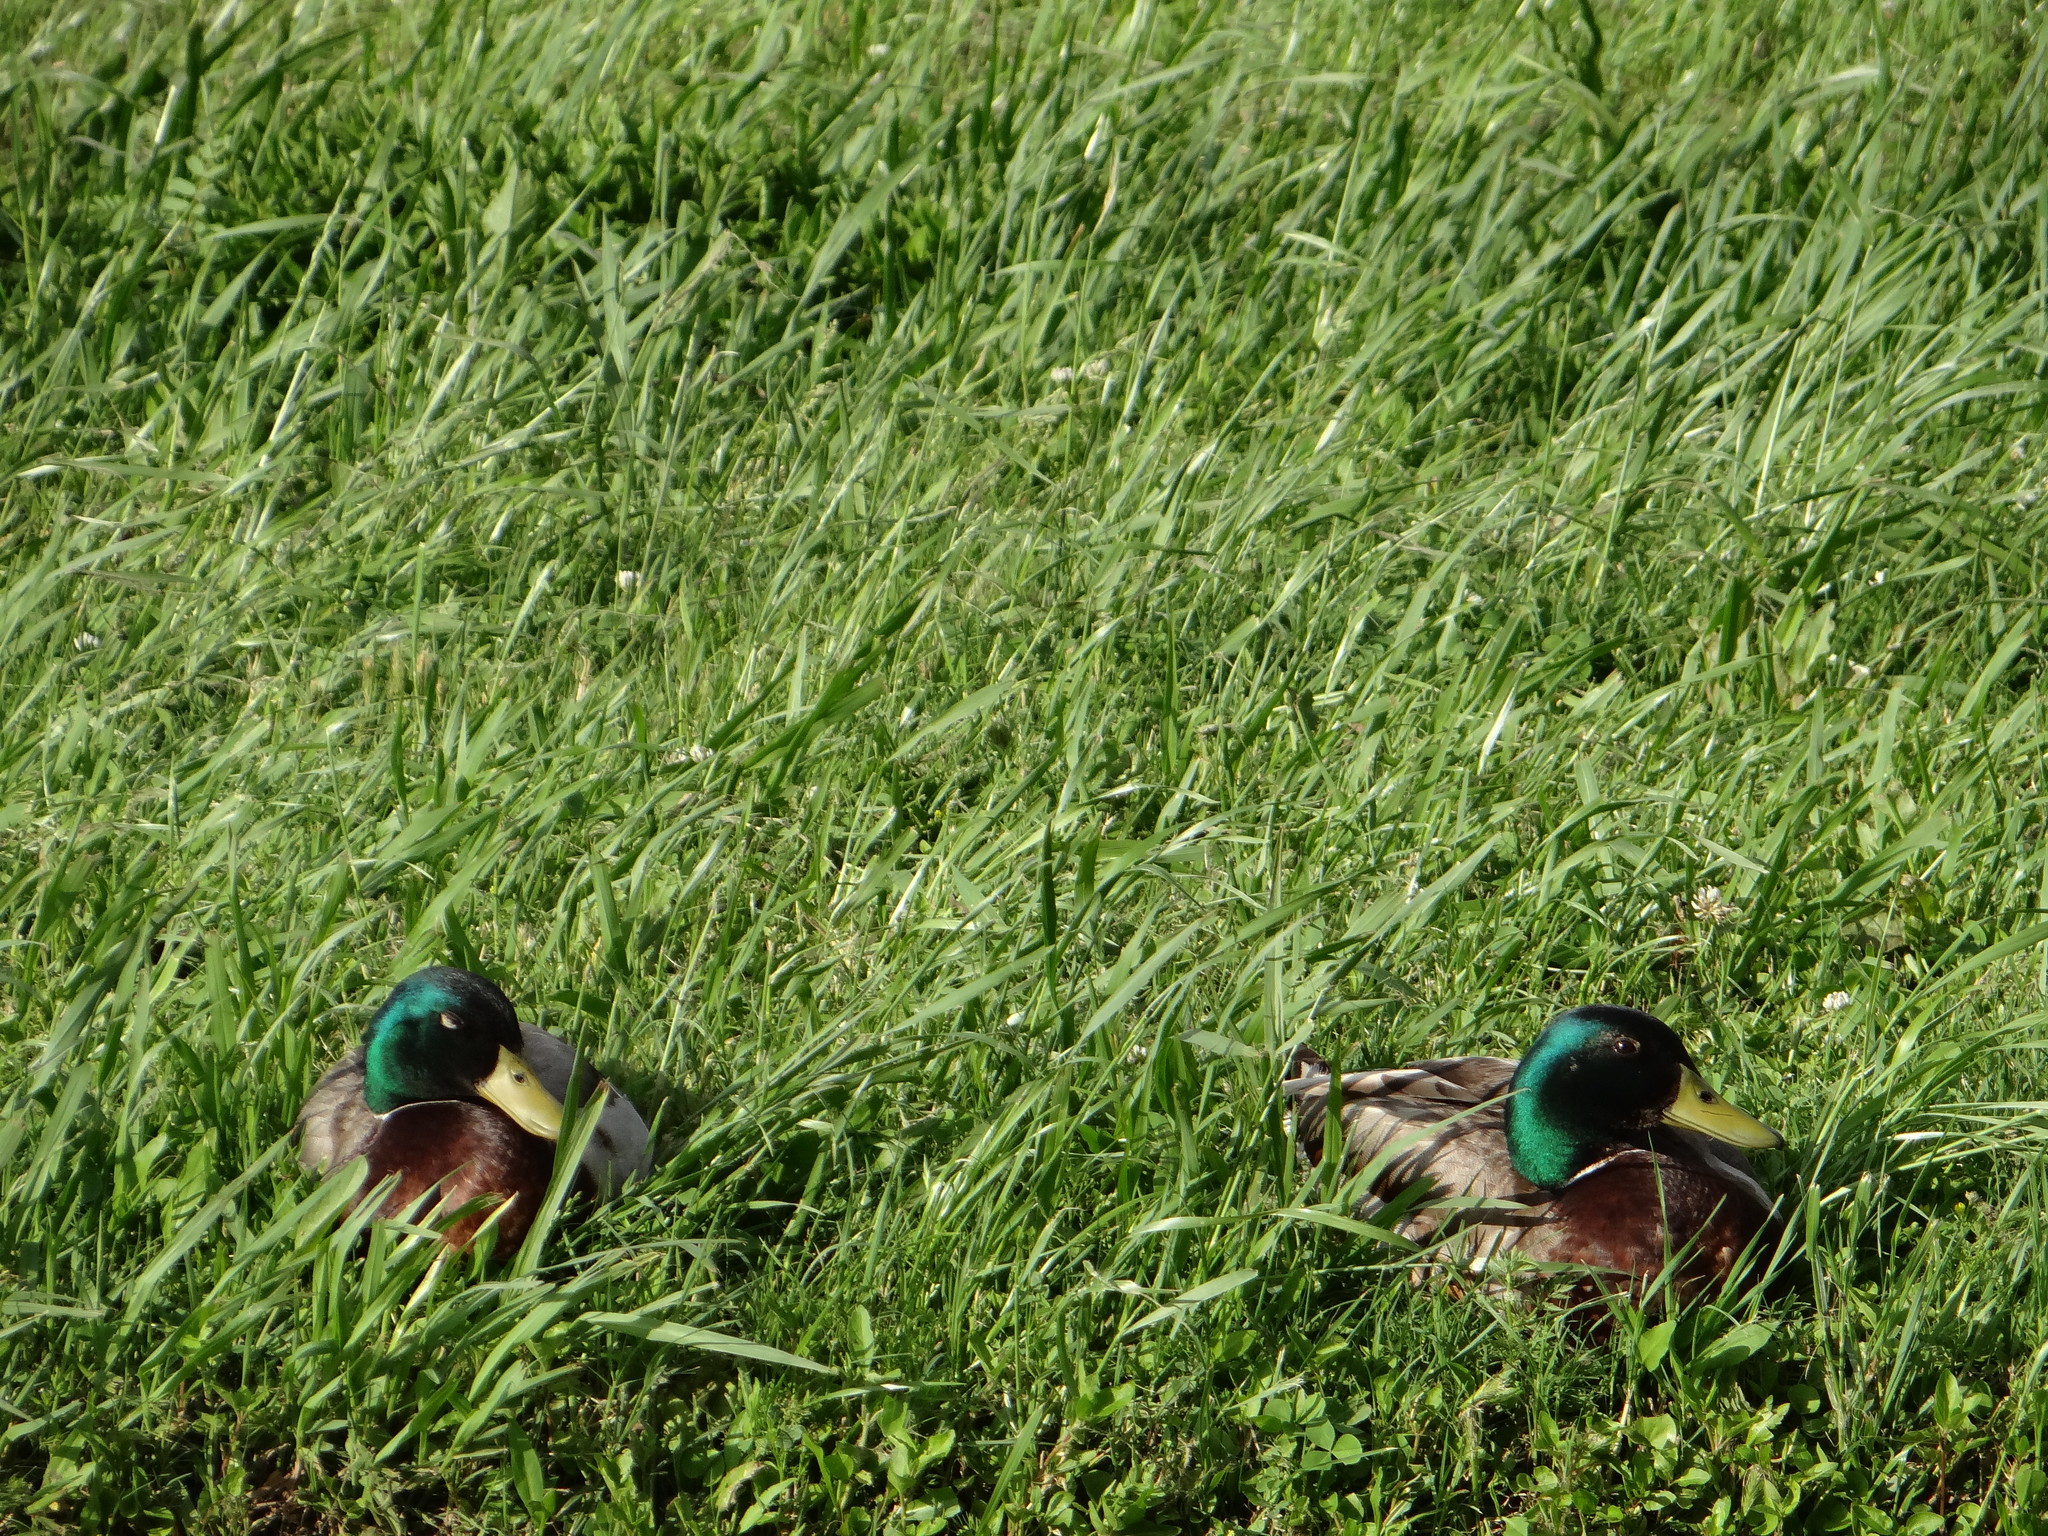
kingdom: Animalia
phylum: Chordata
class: Aves
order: Anseriformes
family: Anatidae
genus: Anas
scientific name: Anas platyrhynchos
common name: Mallard
